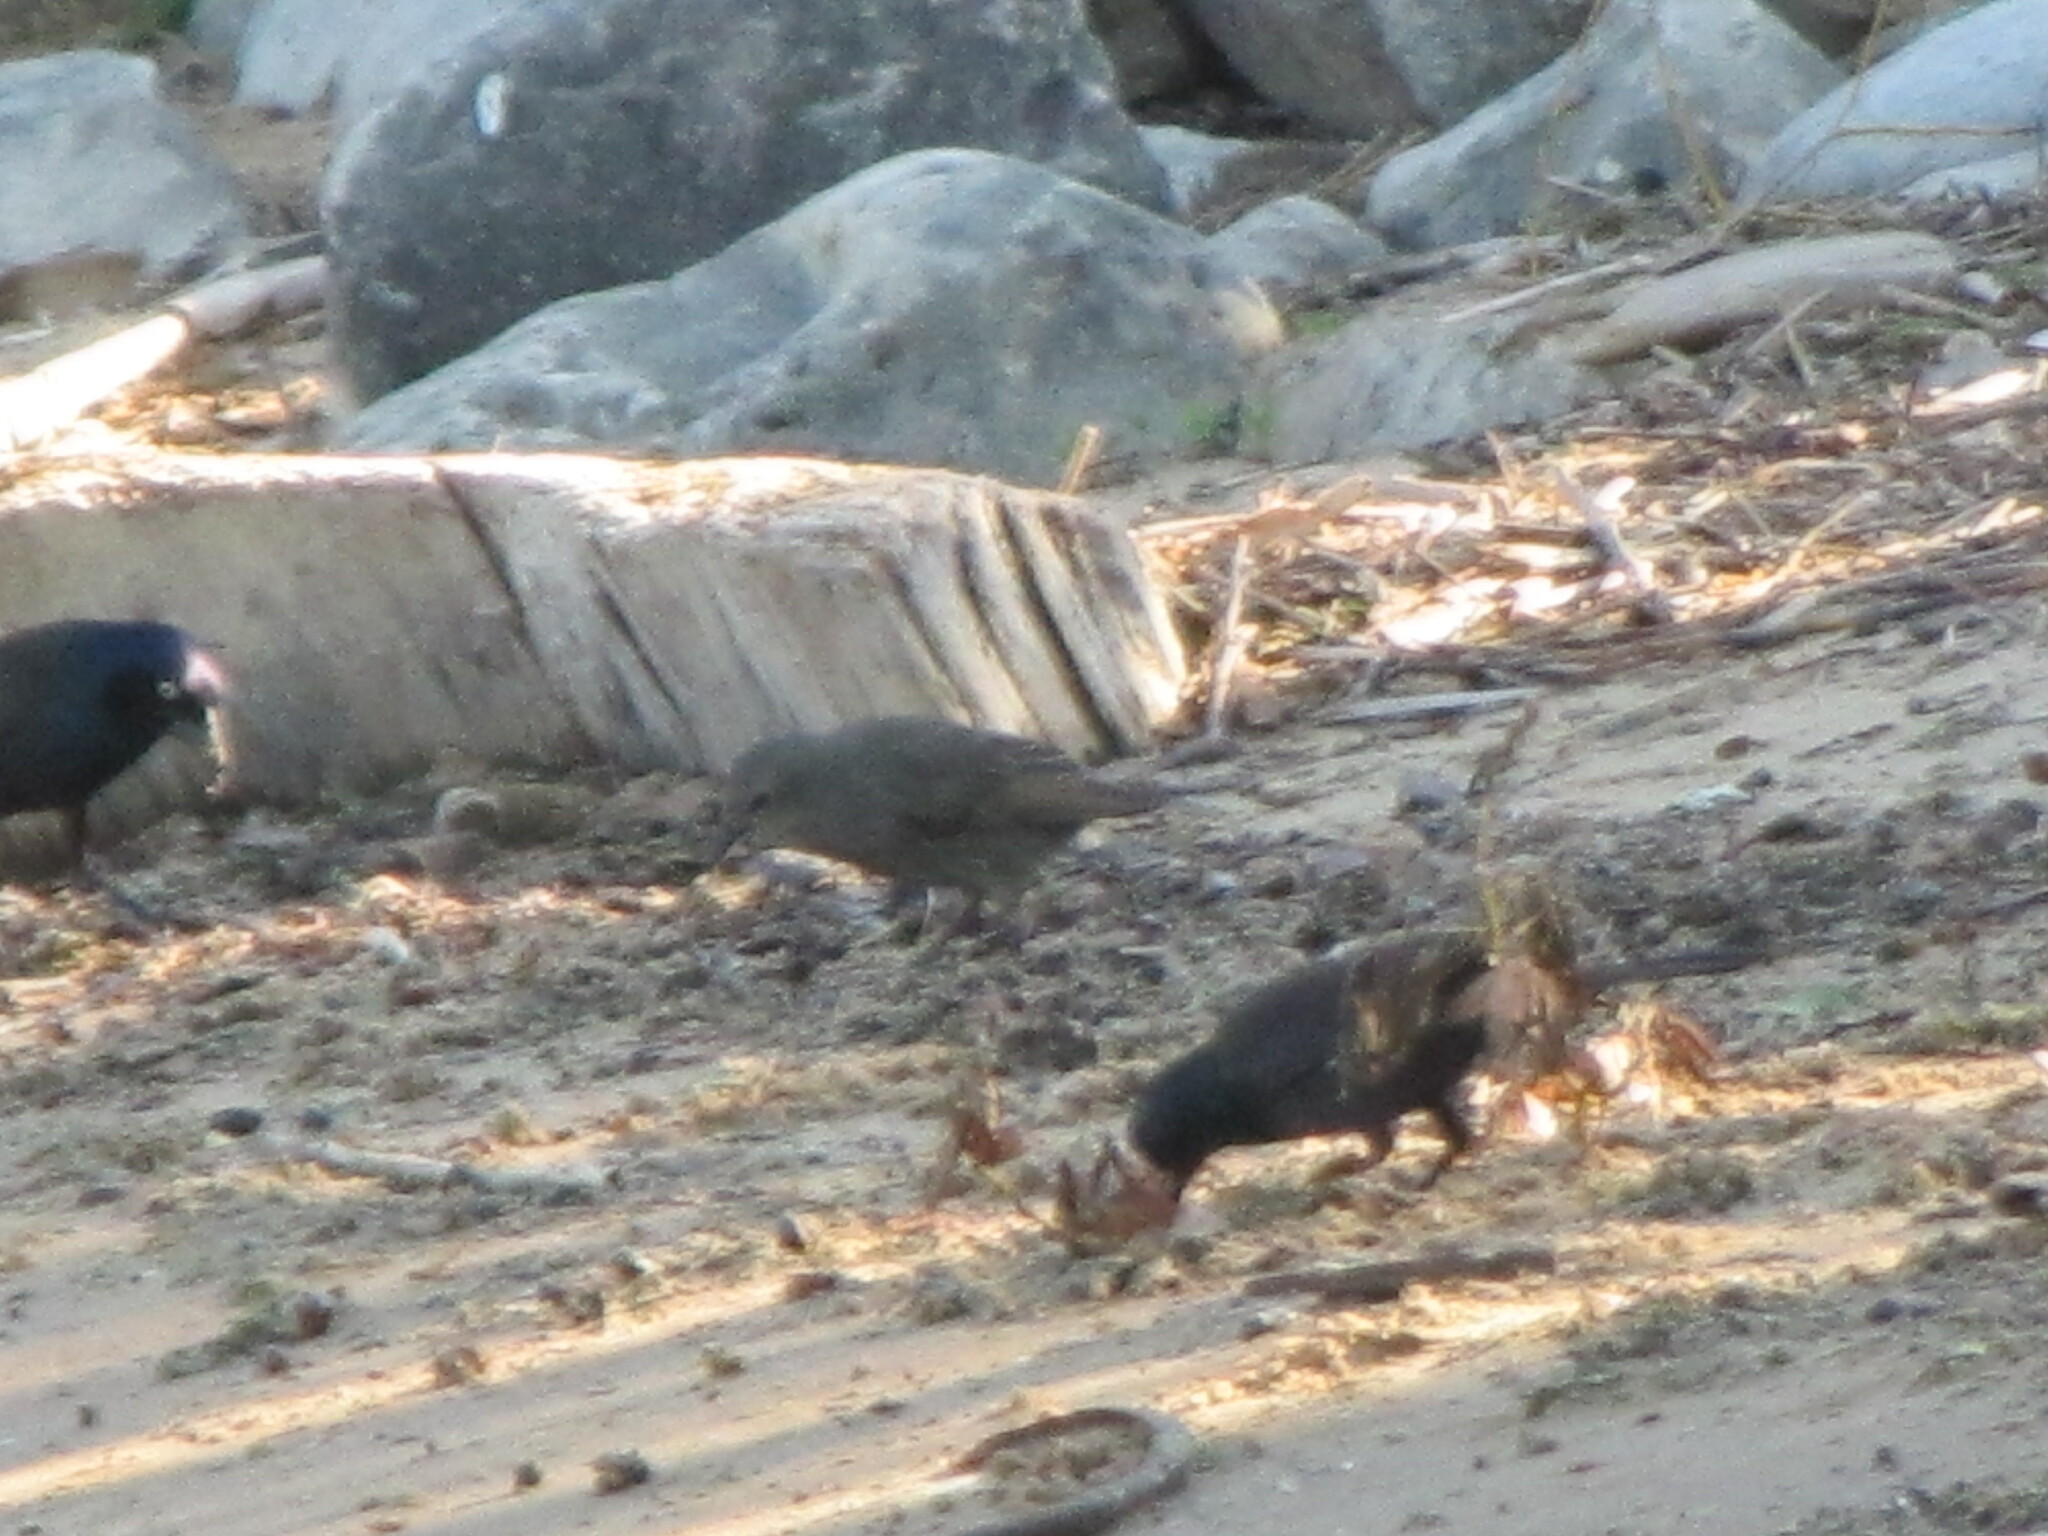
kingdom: Animalia
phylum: Chordata
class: Aves
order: Passeriformes
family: Sturnidae
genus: Sturnus
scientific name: Sturnus vulgaris
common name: Common starling
